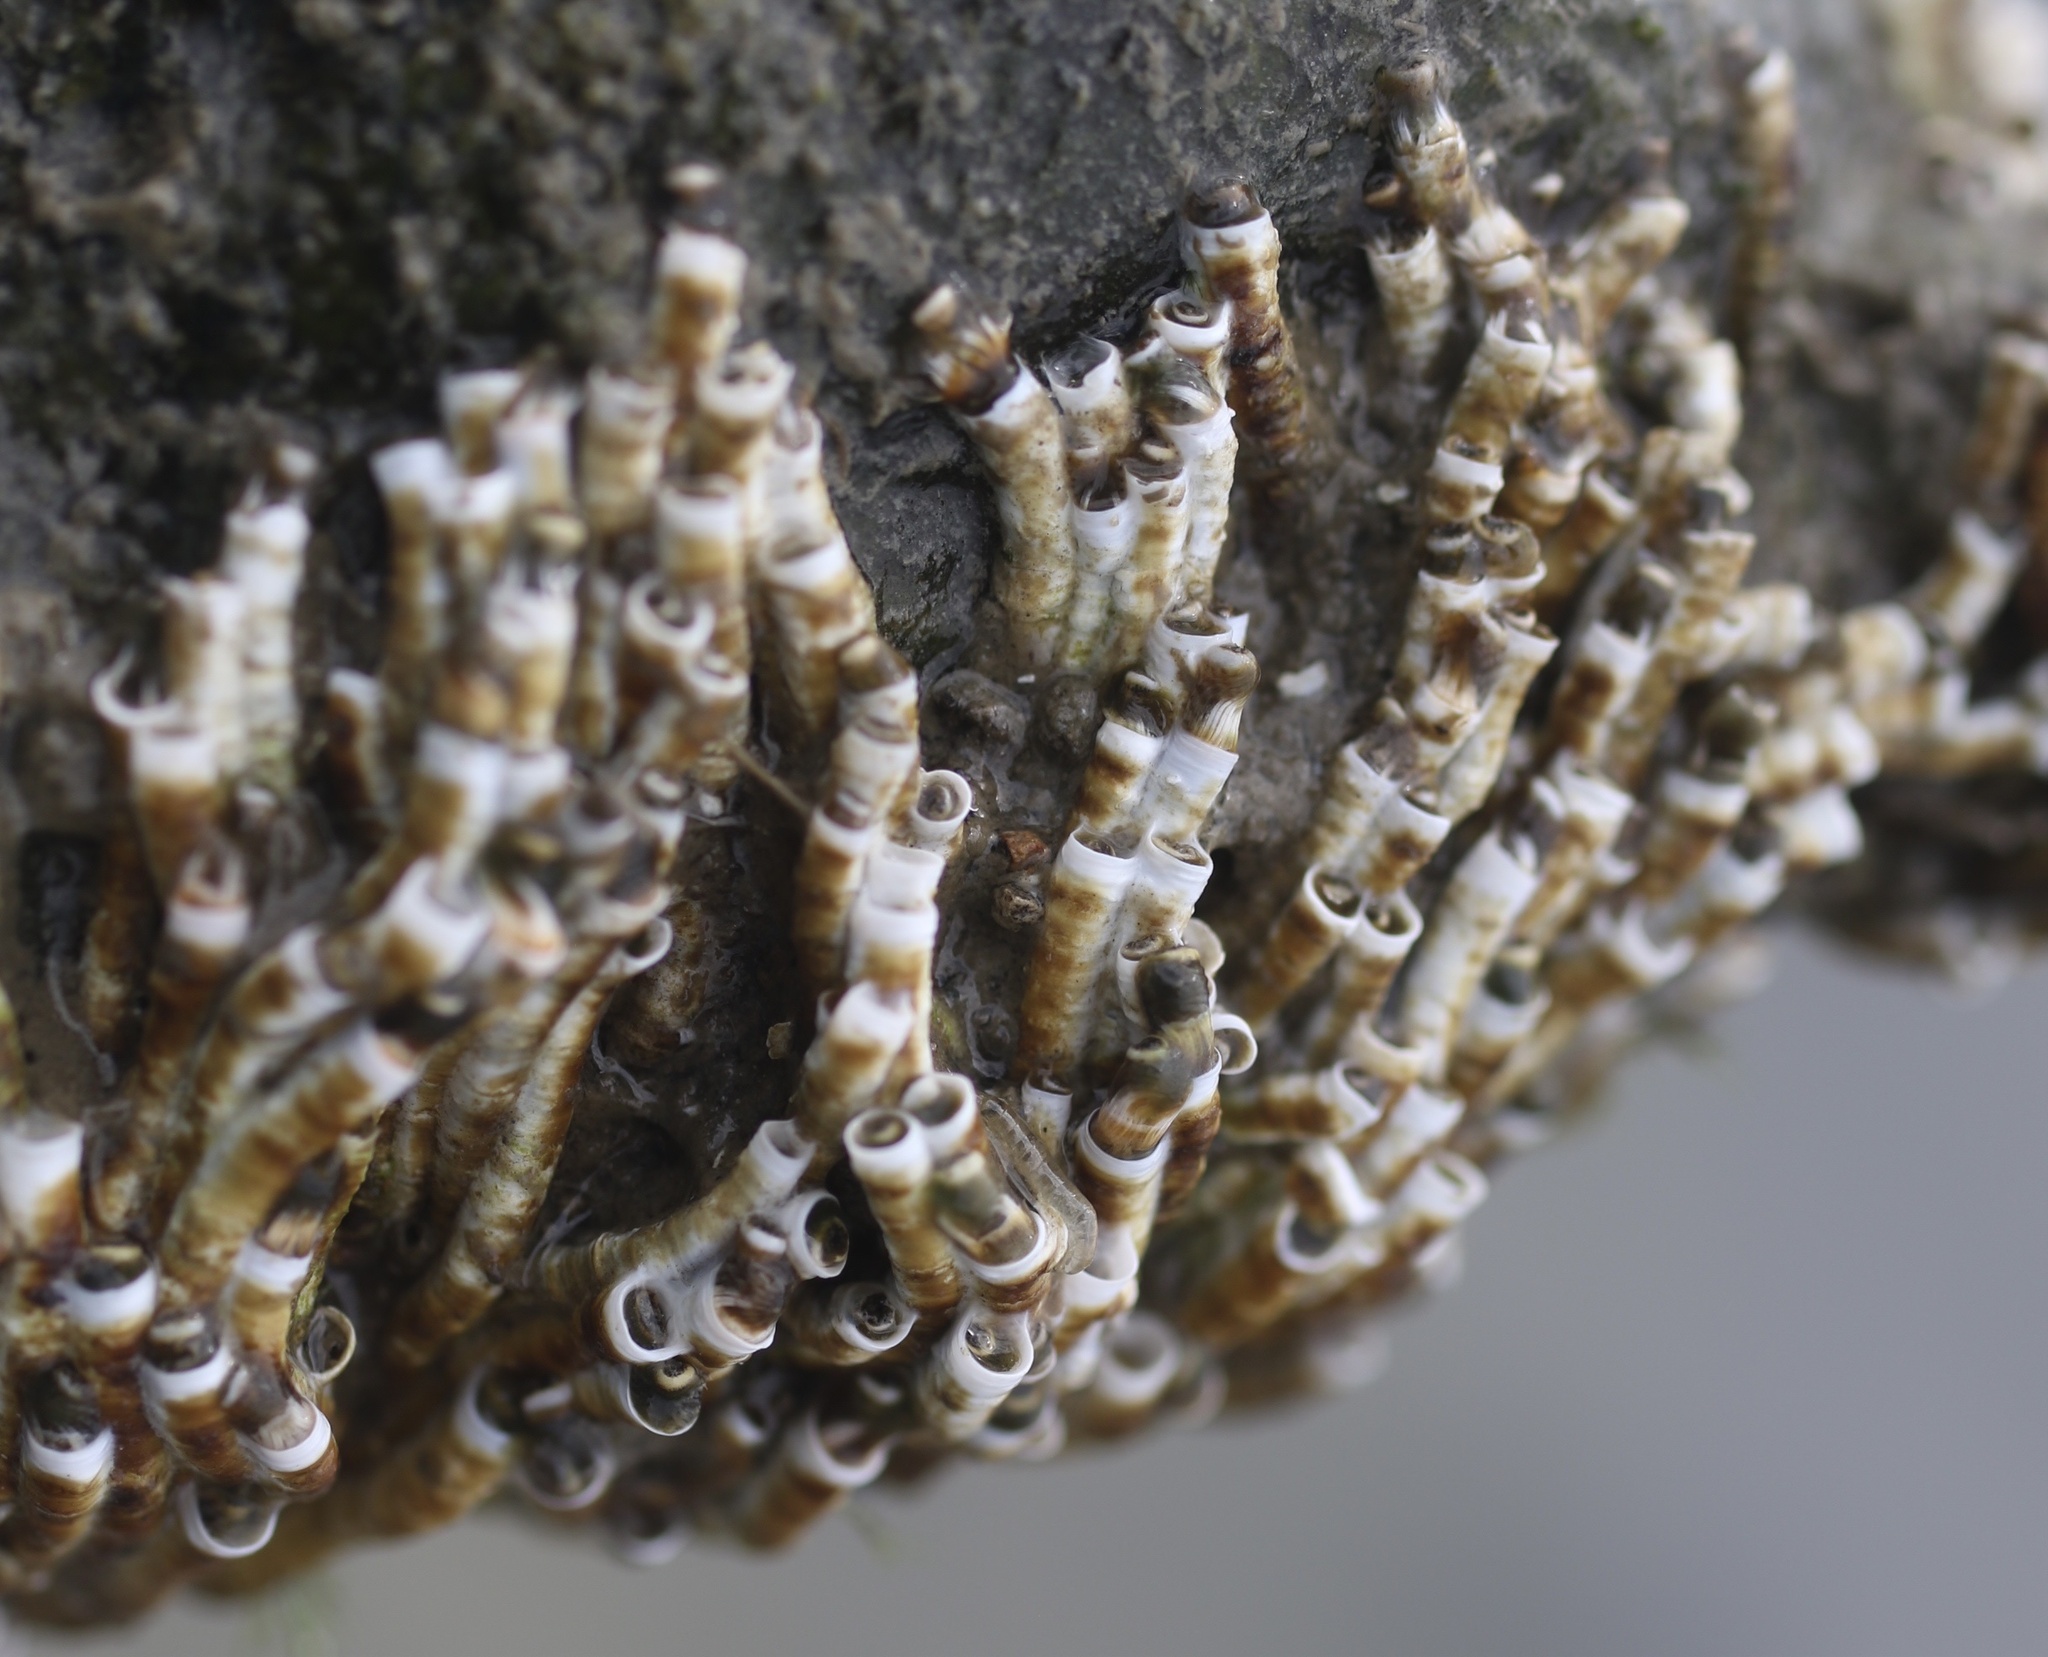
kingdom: Animalia
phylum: Annelida
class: Polychaeta
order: Sabellida
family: Serpulidae
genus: Ficopomatus
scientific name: Ficopomatus enigmaticus
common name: Australian tubeworm
